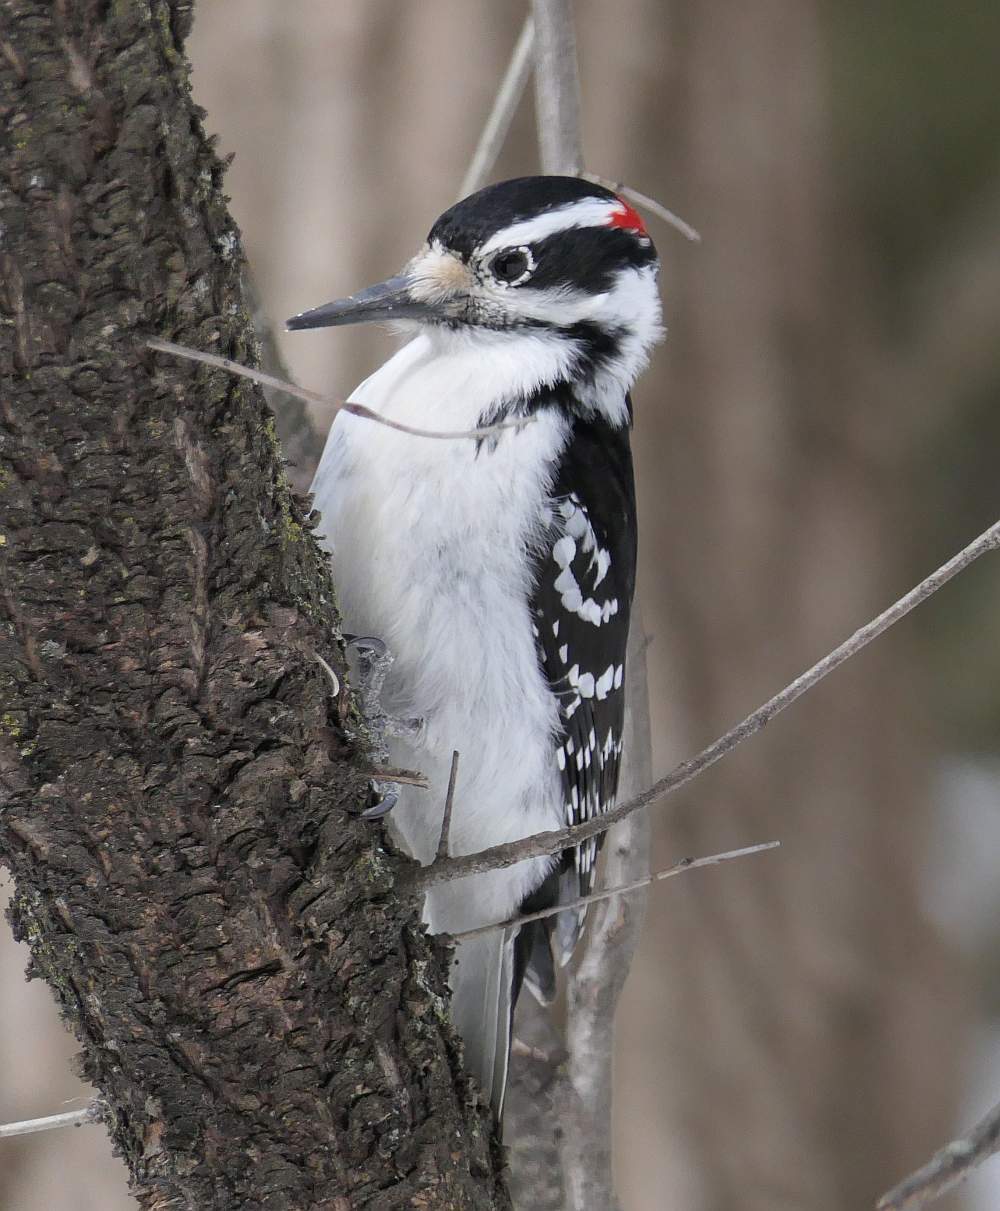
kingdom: Animalia
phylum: Chordata
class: Aves
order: Piciformes
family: Picidae
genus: Leuconotopicus
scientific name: Leuconotopicus villosus
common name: Hairy woodpecker
